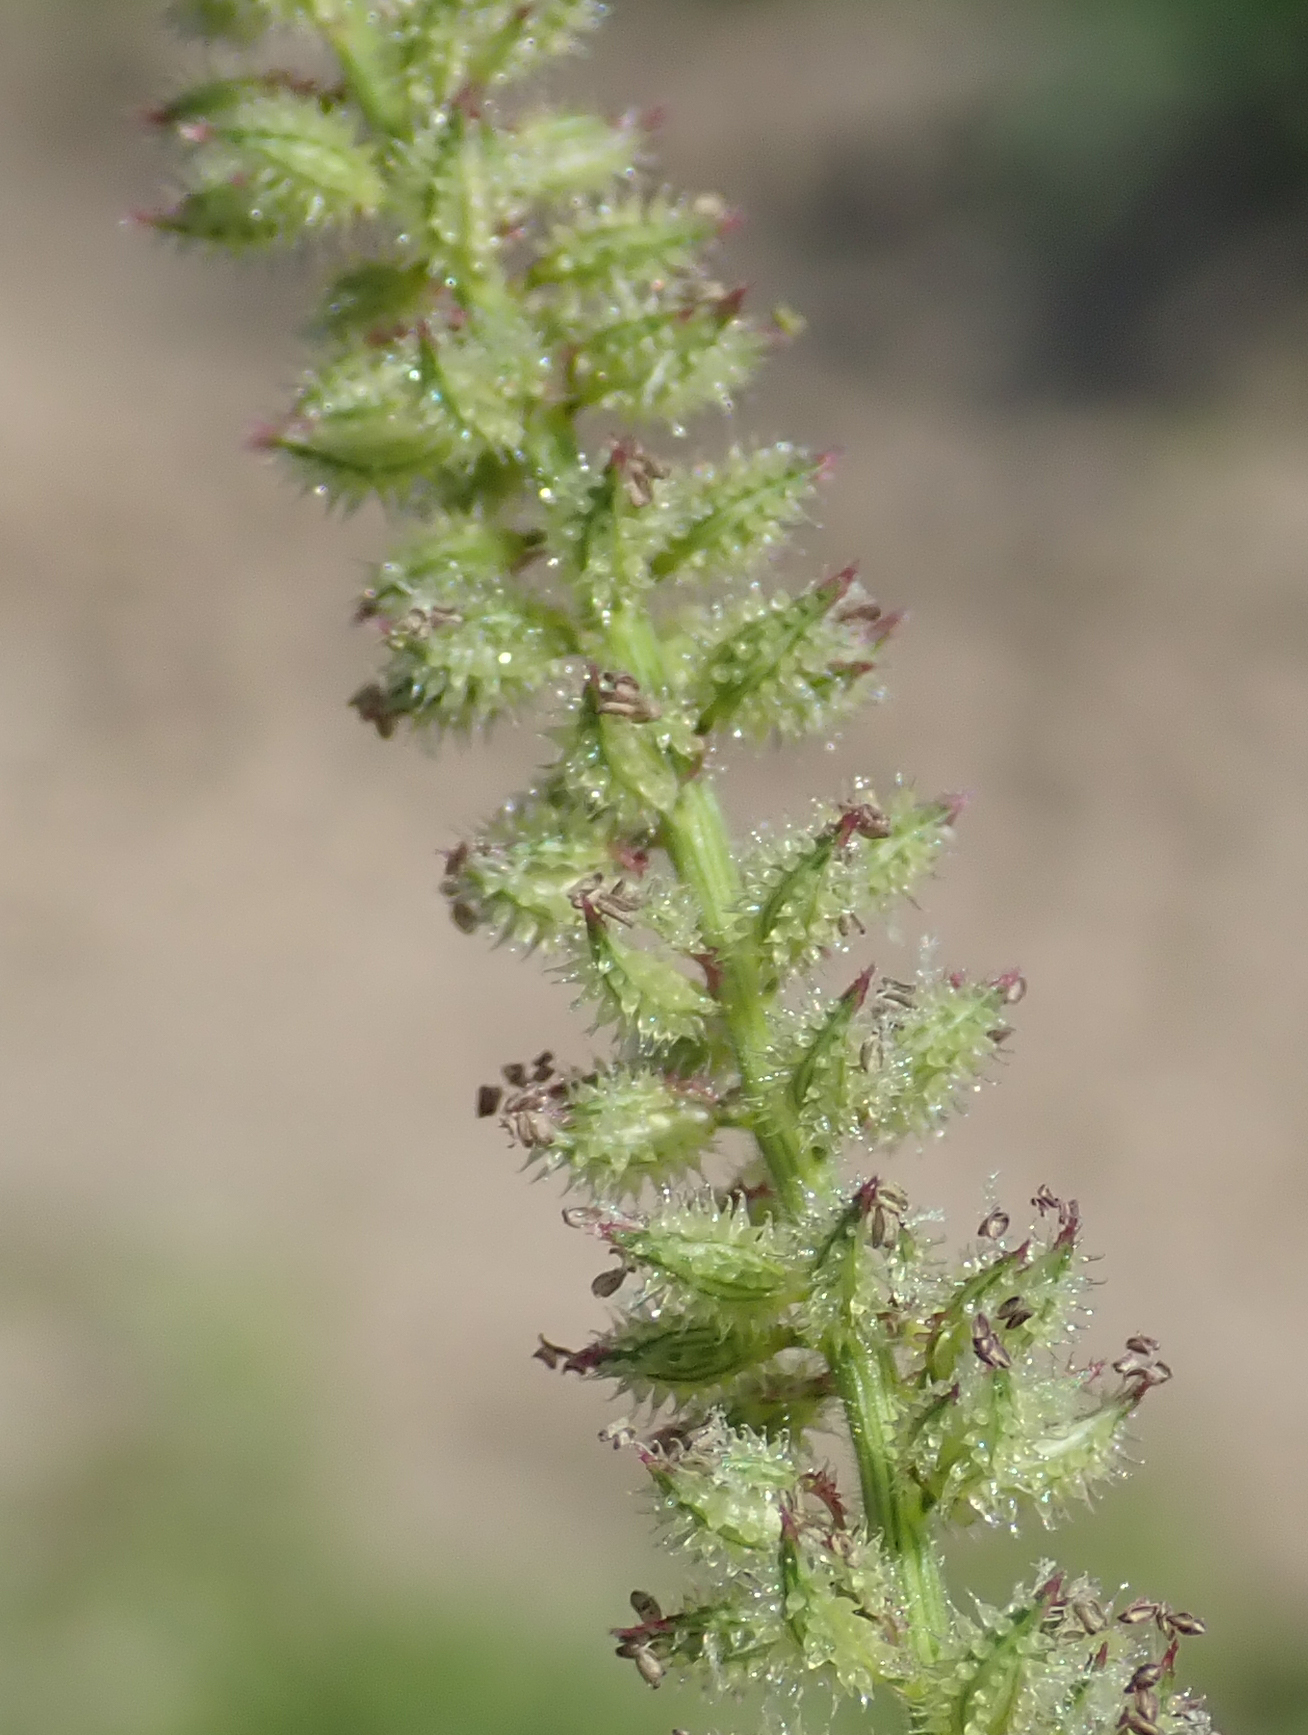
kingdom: Plantae
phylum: Tracheophyta
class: Liliopsida
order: Poales
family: Poaceae
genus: Tragus
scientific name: Tragus berteronianus
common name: African bur-grass
